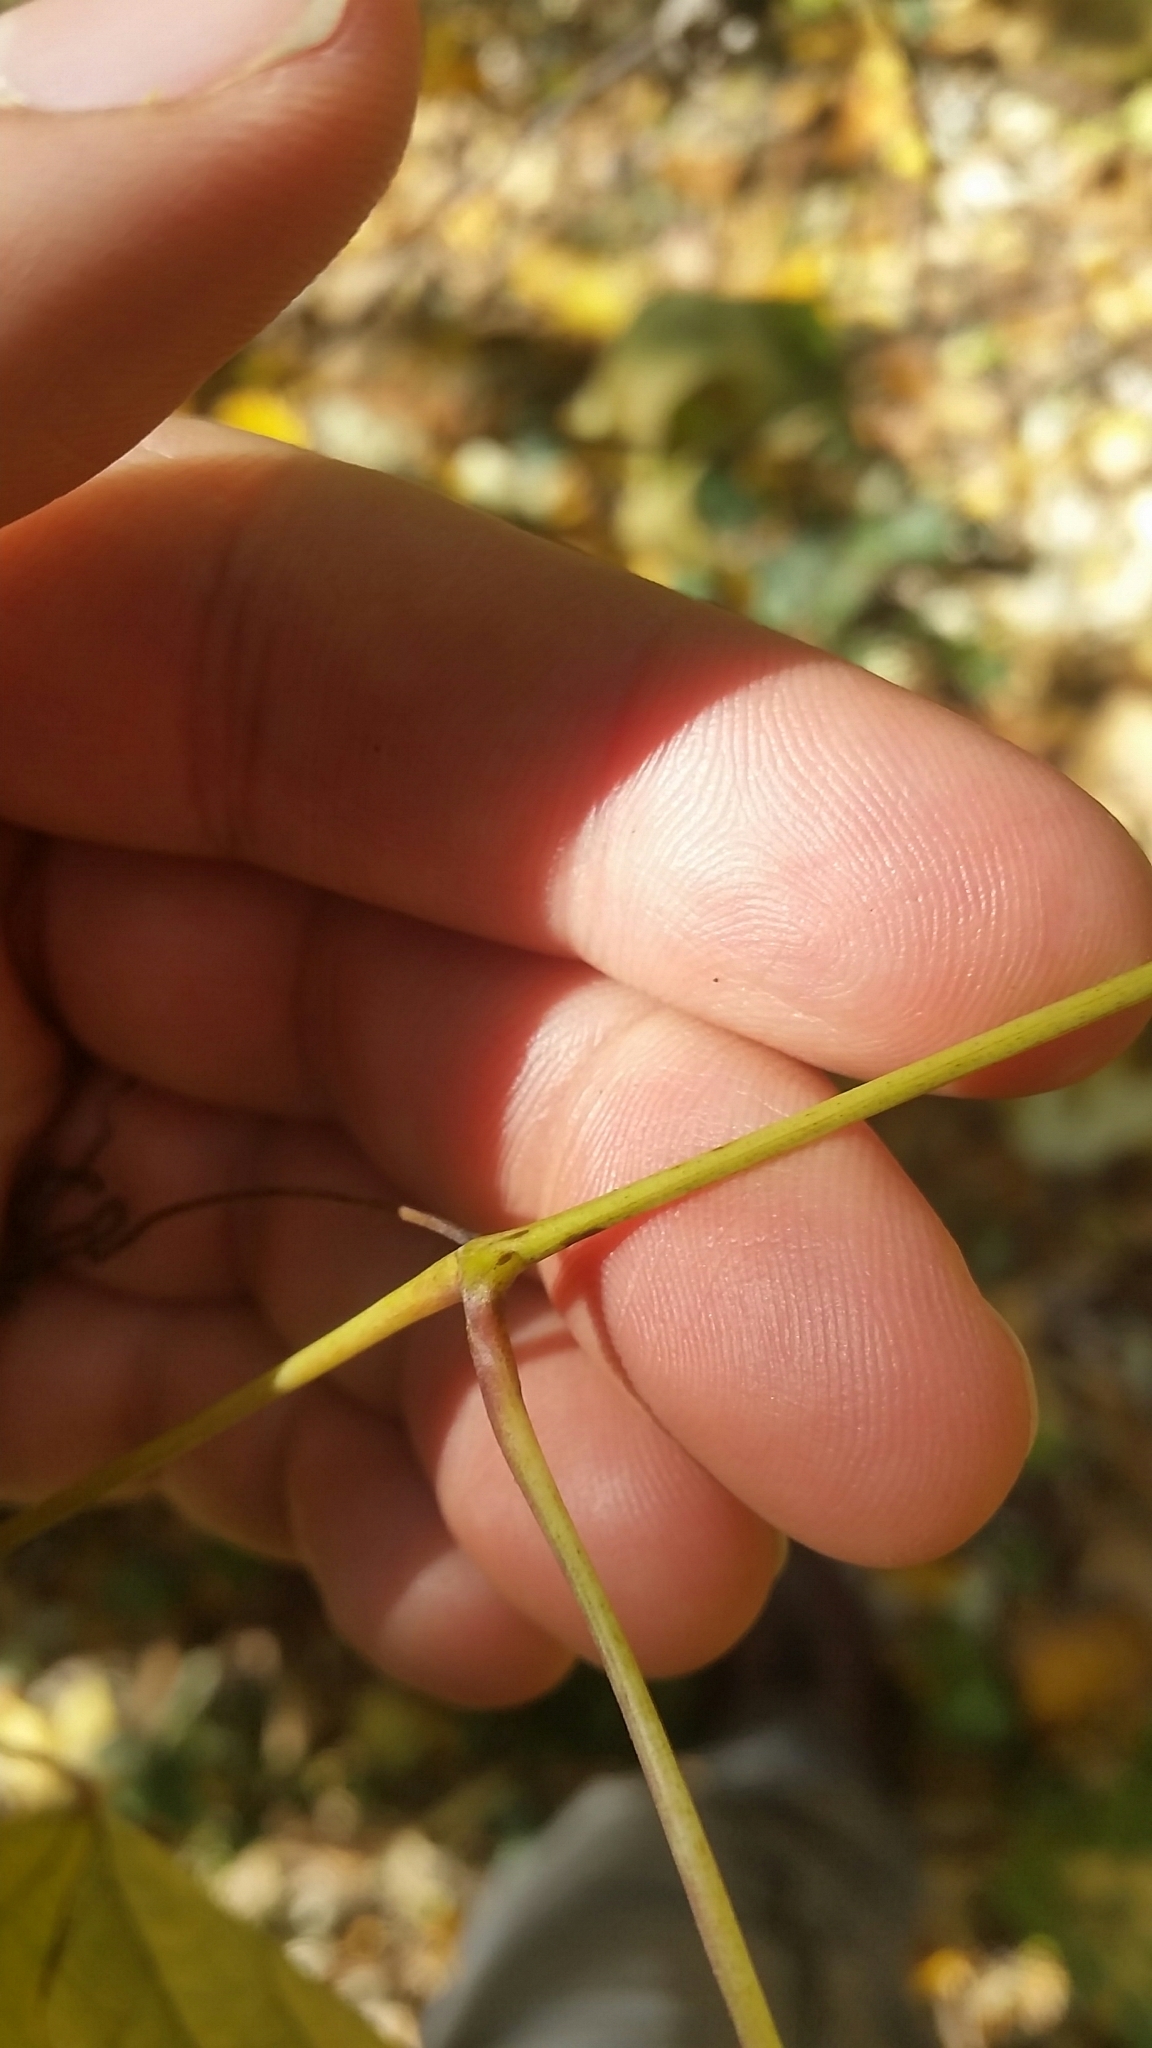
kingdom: Plantae
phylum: Tracheophyta
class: Magnoliopsida
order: Vitales
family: Vitaceae
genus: Ampelopsis
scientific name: Ampelopsis glandulosa
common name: Amur peppervine
